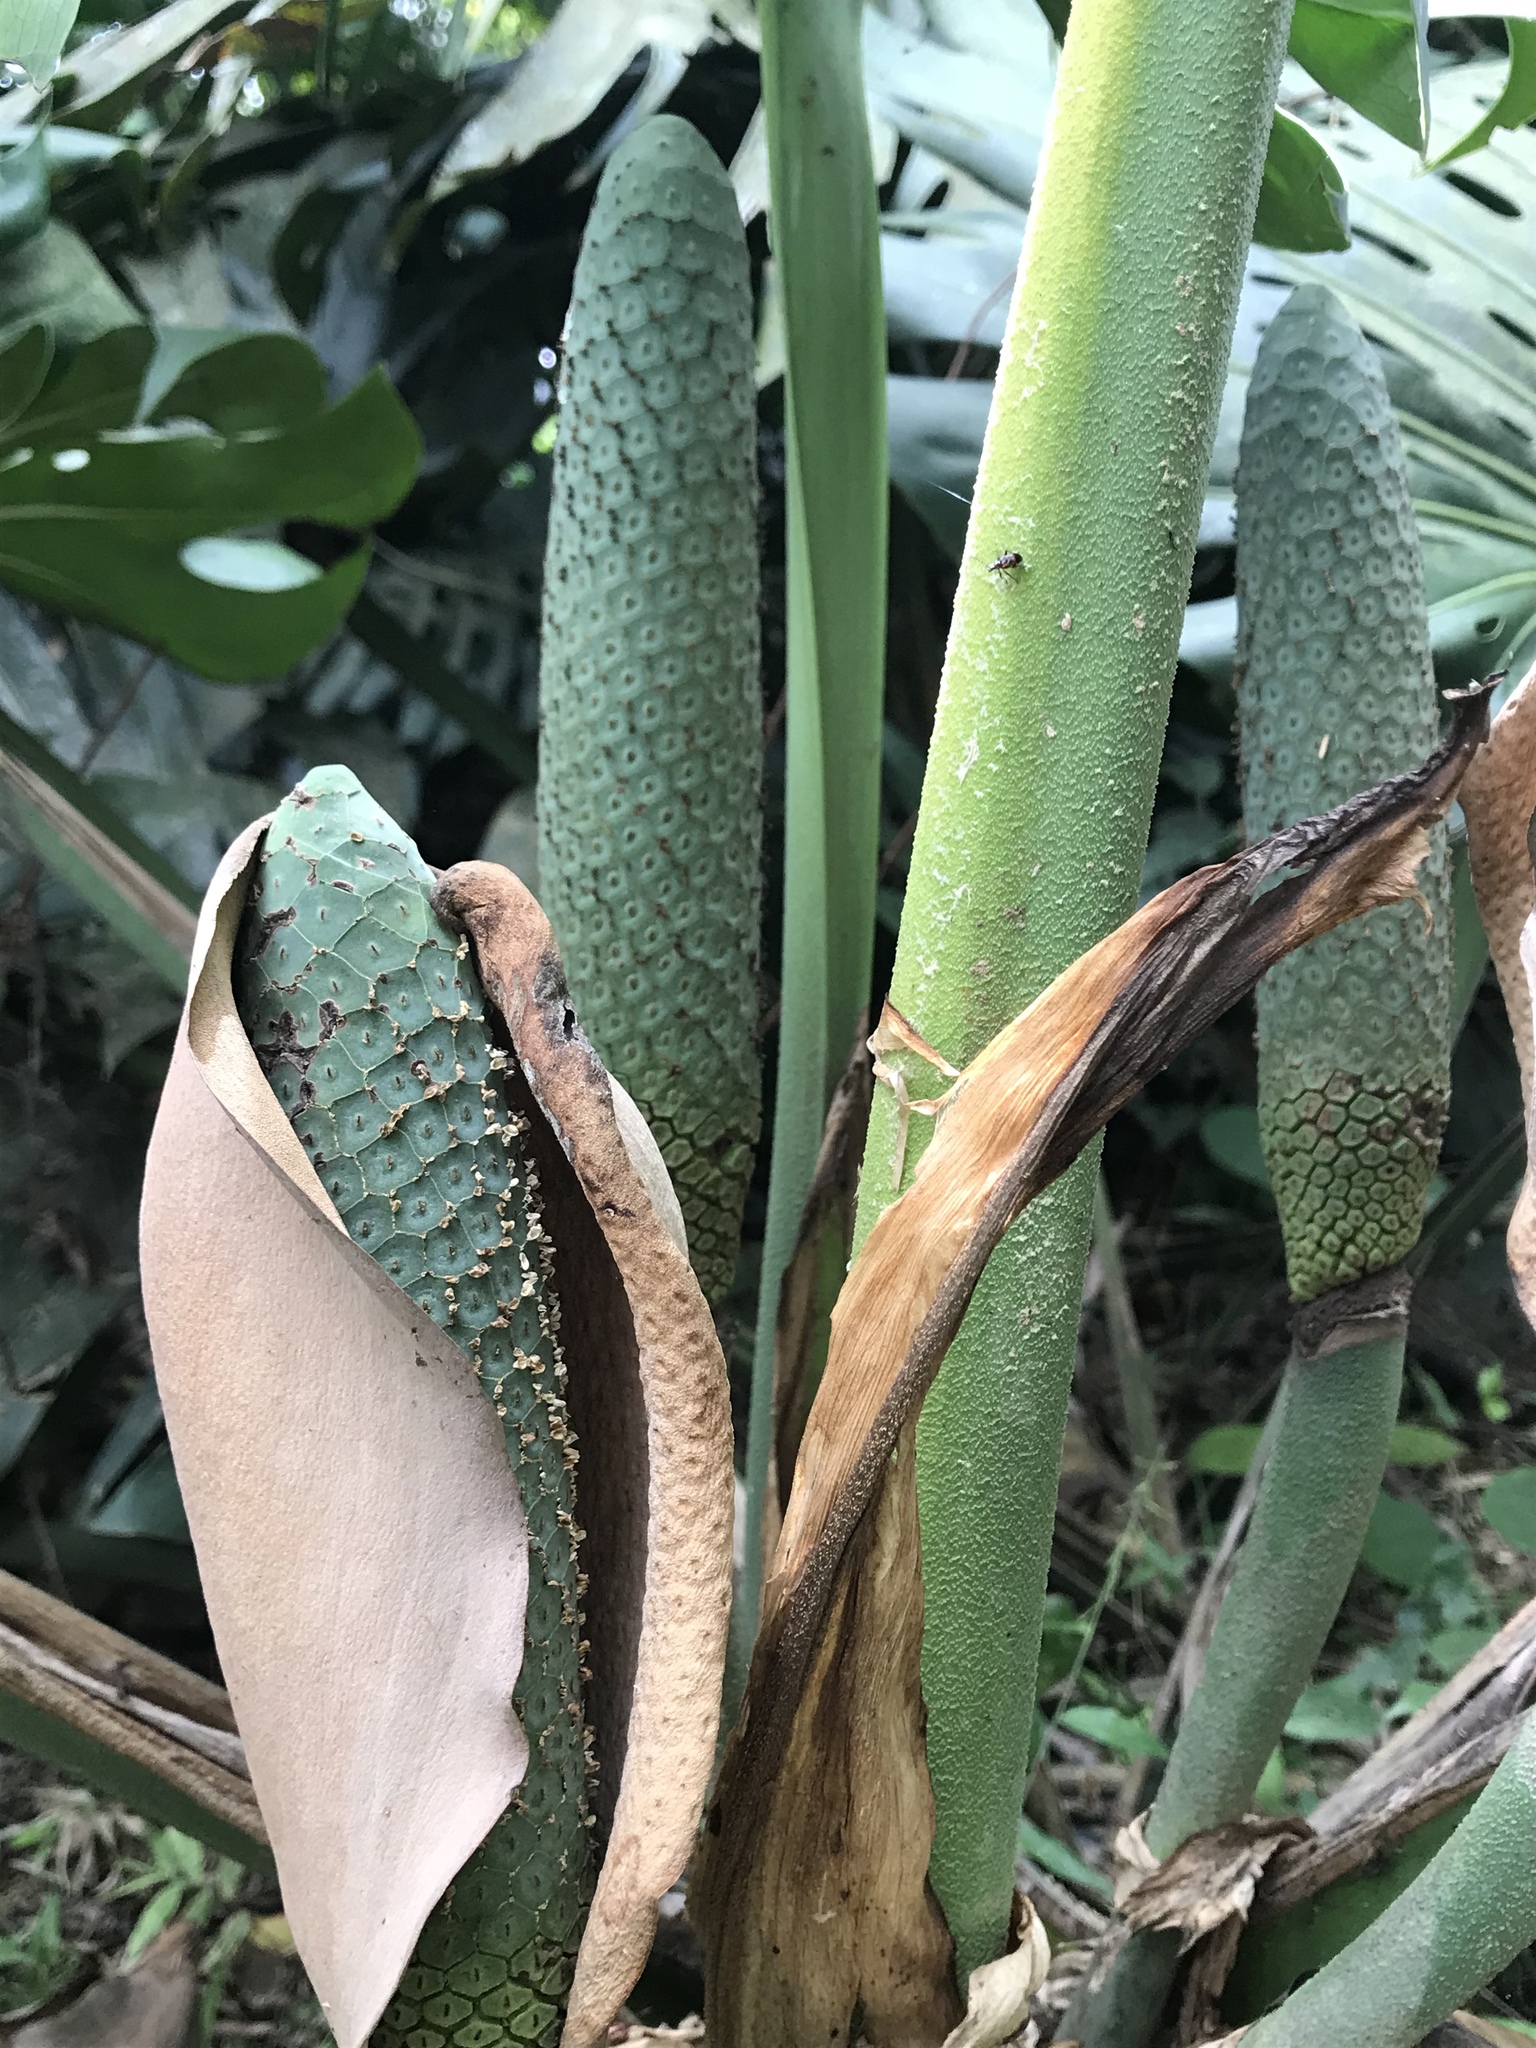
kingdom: Plantae
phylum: Tracheophyta
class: Liliopsida
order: Alismatales
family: Araceae
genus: Monstera
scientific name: Monstera deliciosa
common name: Cut-leaf-philodendron
